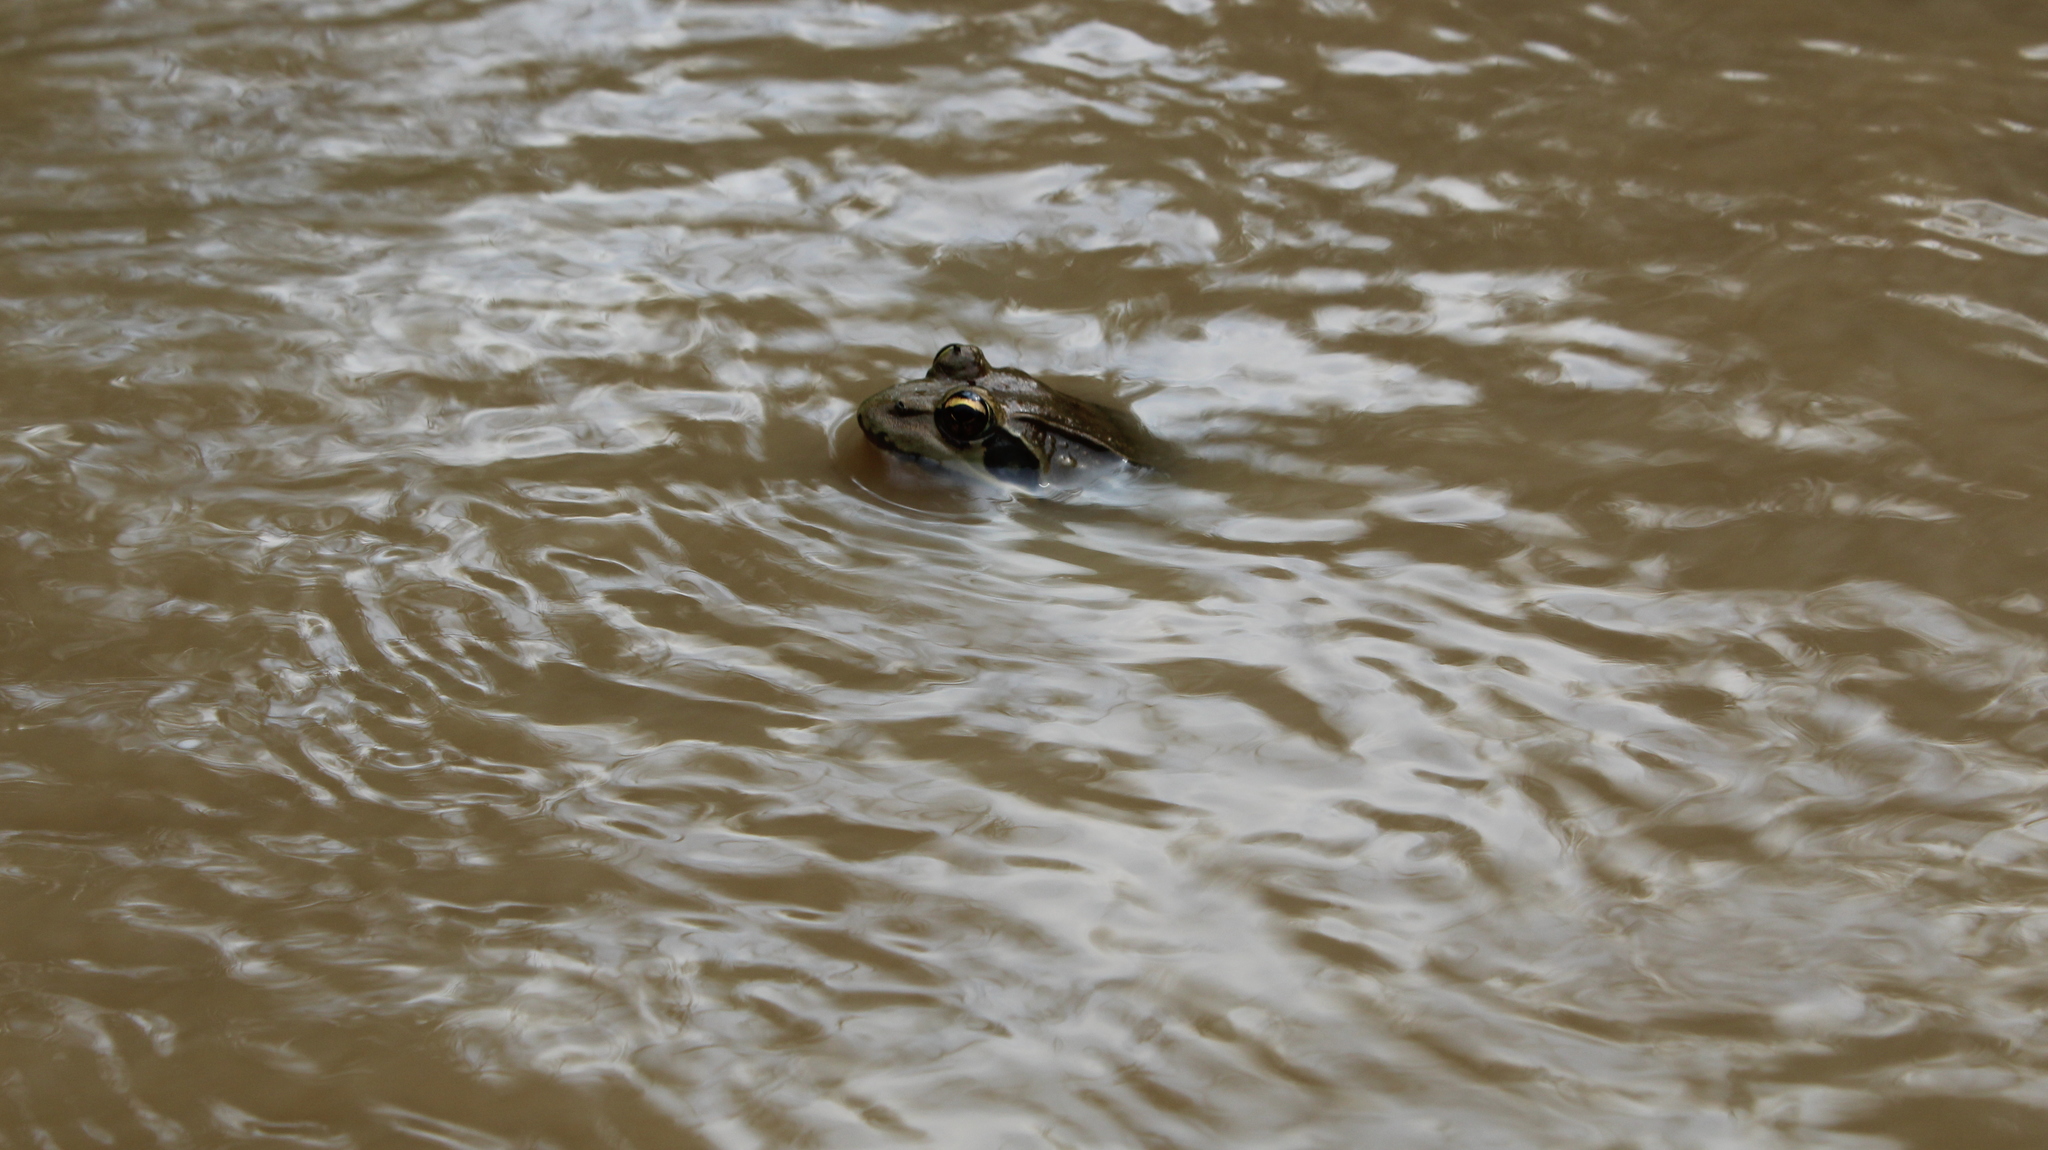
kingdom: Animalia
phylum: Chordata
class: Amphibia
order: Anura
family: Pyxicephalidae
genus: Amietia
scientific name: Amietia desaegeri
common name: Byangolo frog
